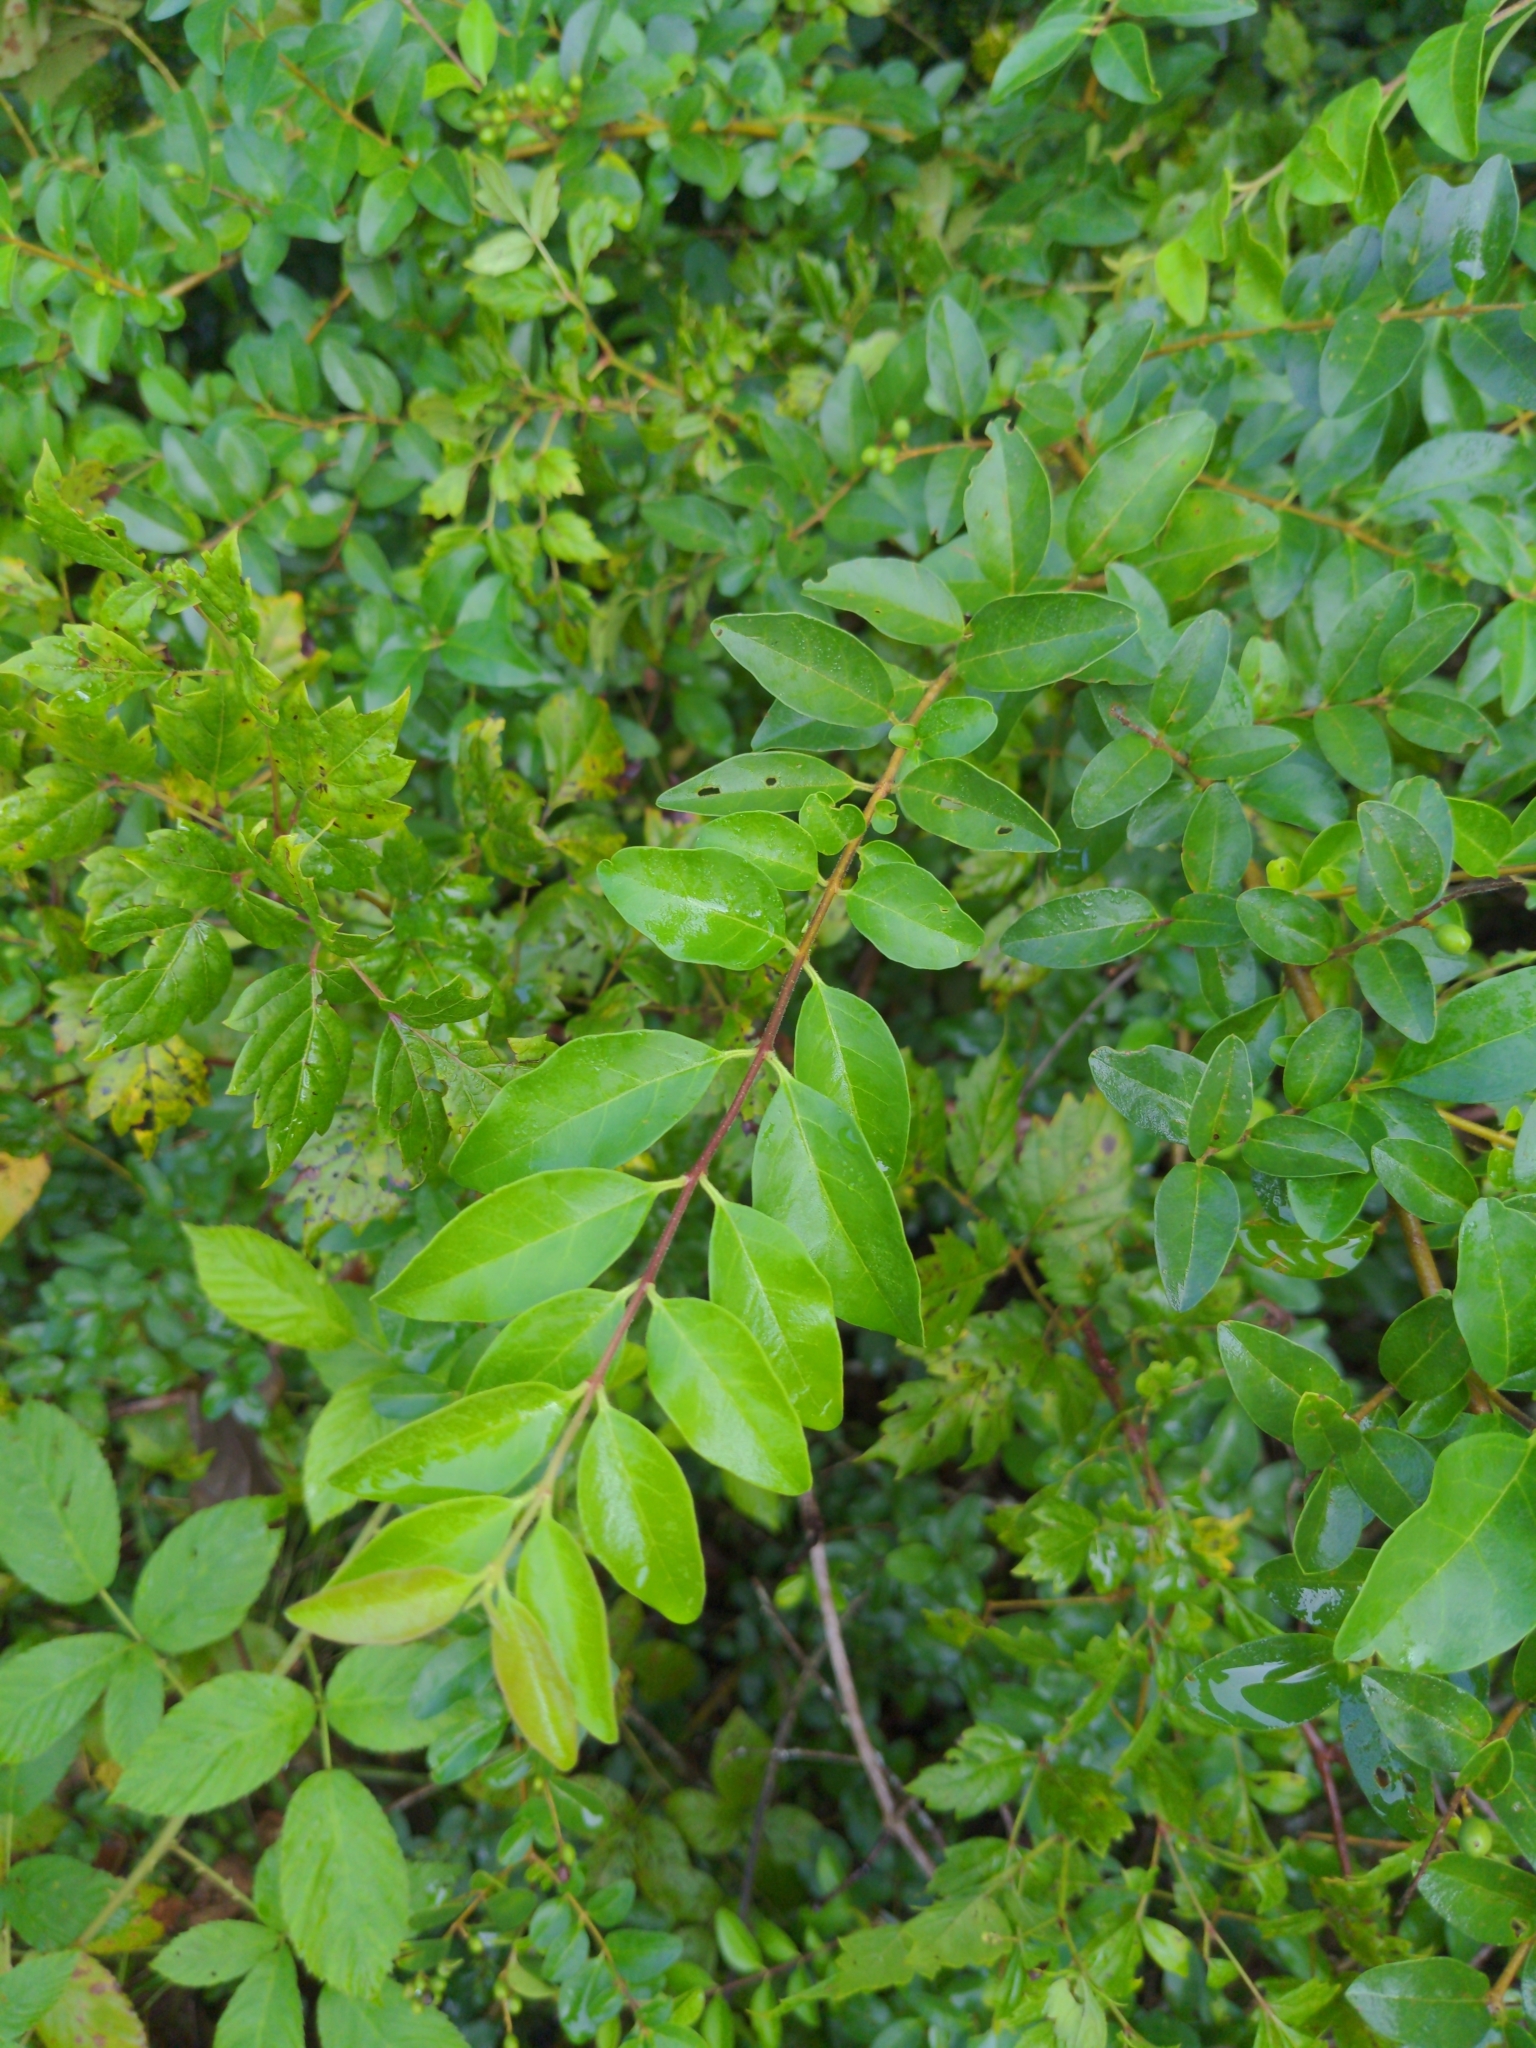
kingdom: Plantae
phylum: Tracheophyta
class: Magnoliopsida
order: Lamiales
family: Oleaceae
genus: Ligustrum
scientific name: Ligustrum sinense
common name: Chinese privet
